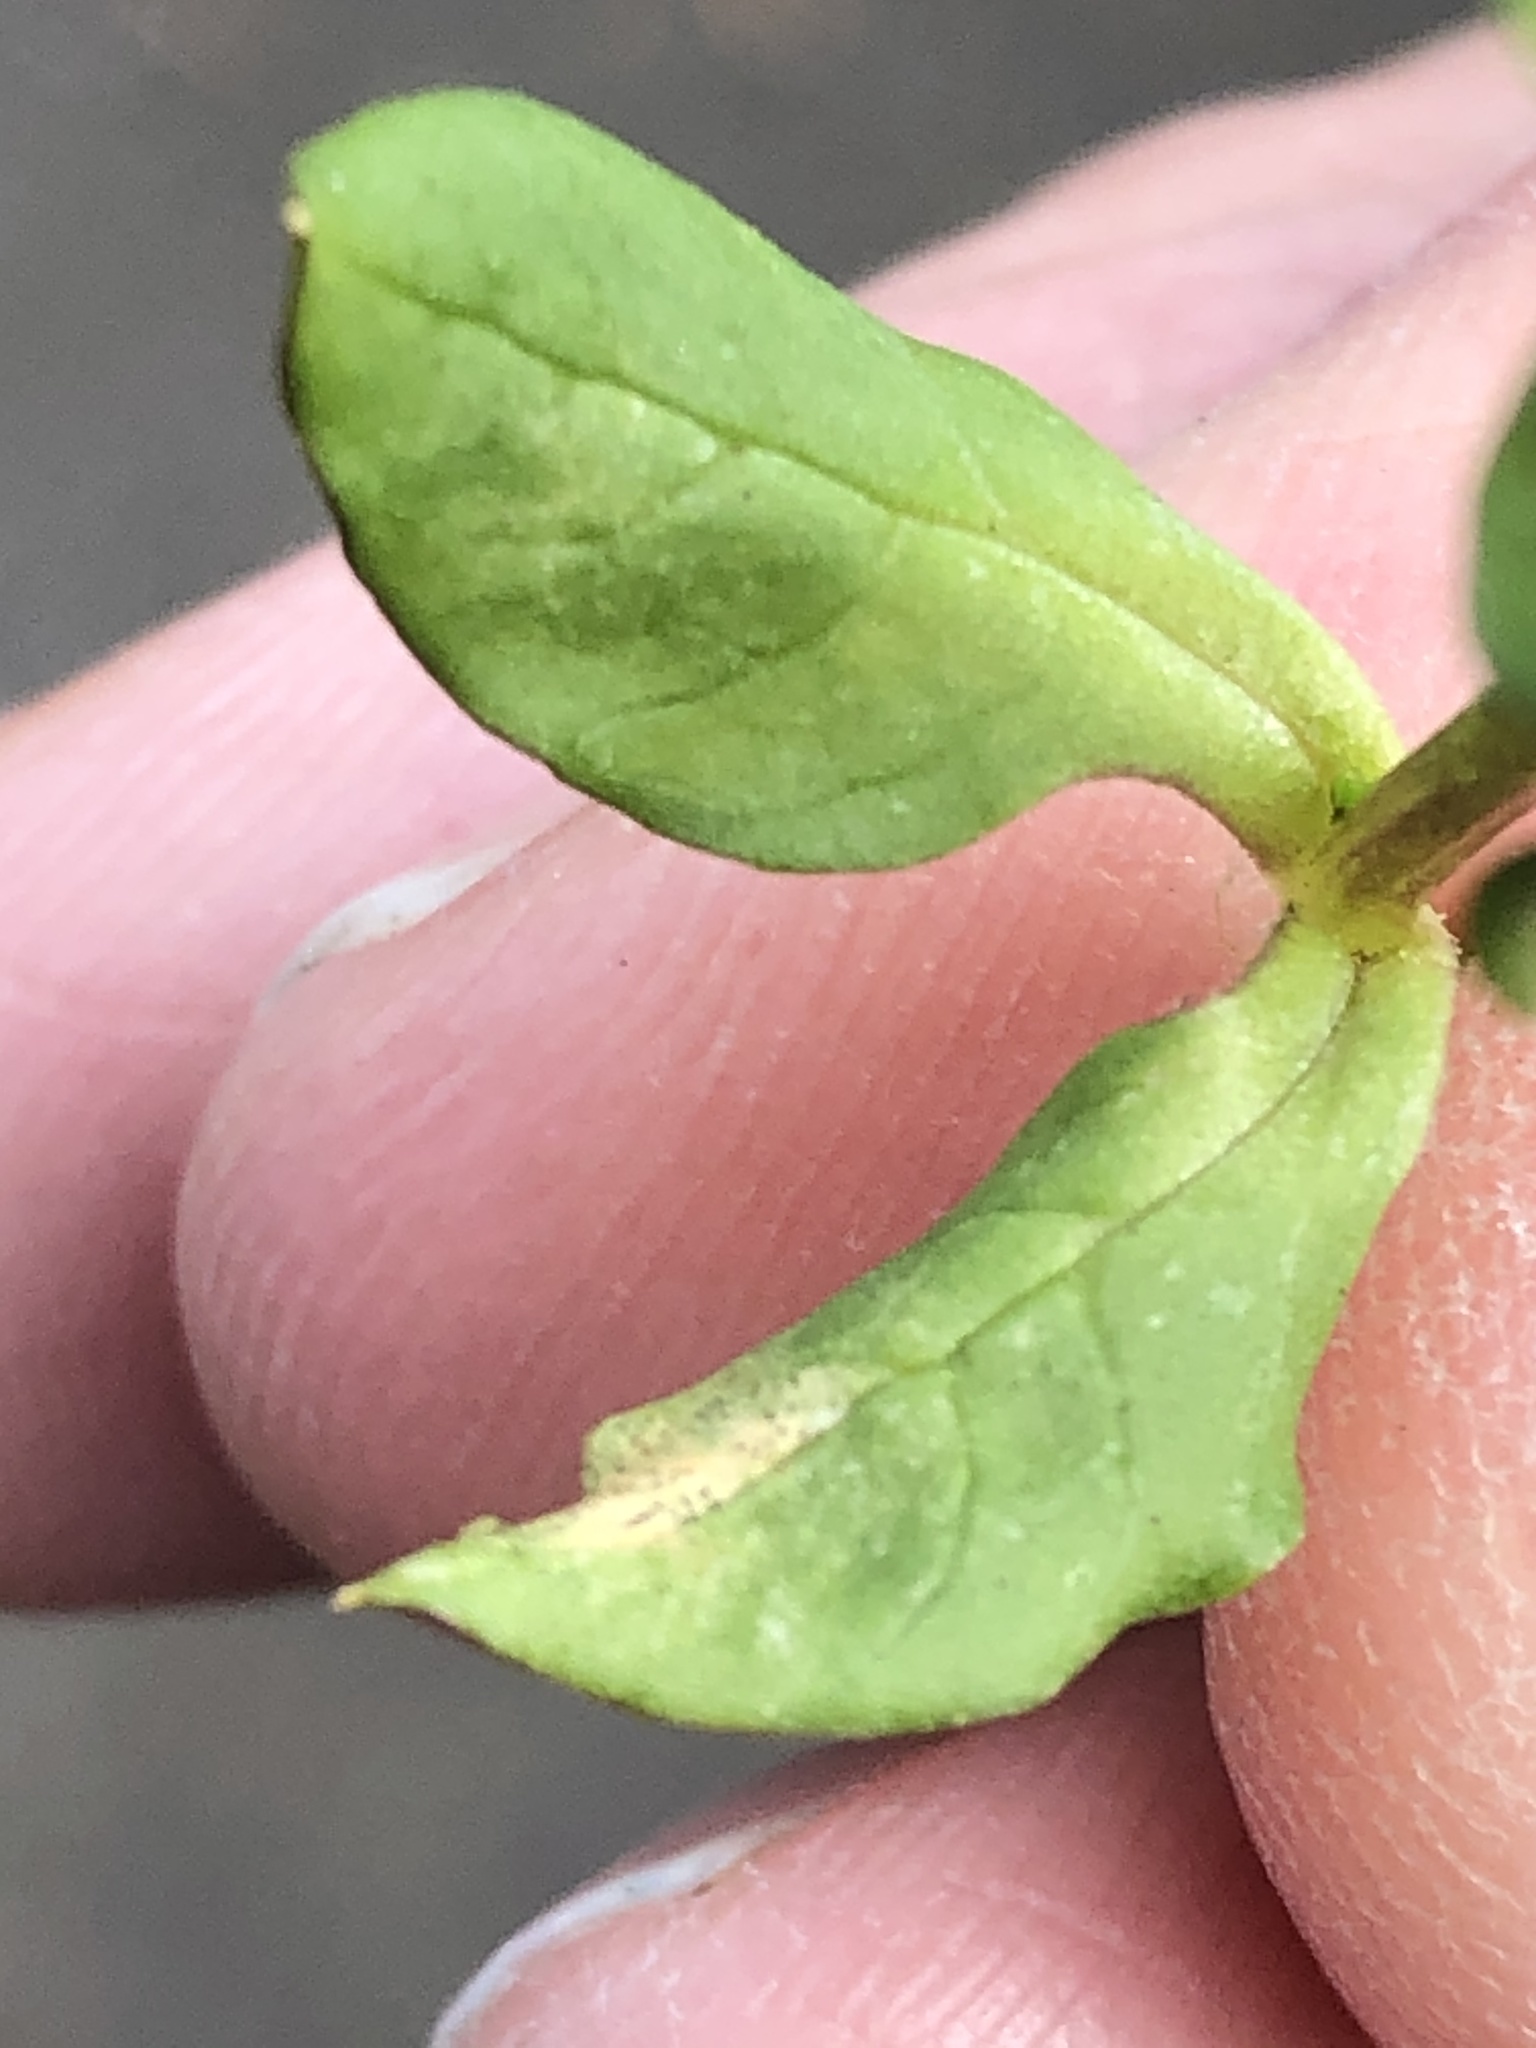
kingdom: Plantae
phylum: Tracheophyta
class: Magnoliopsida
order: Caryophyllales
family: Caryophyllaceae
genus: Stellaria
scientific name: Stellaria media
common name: Common chickweed
